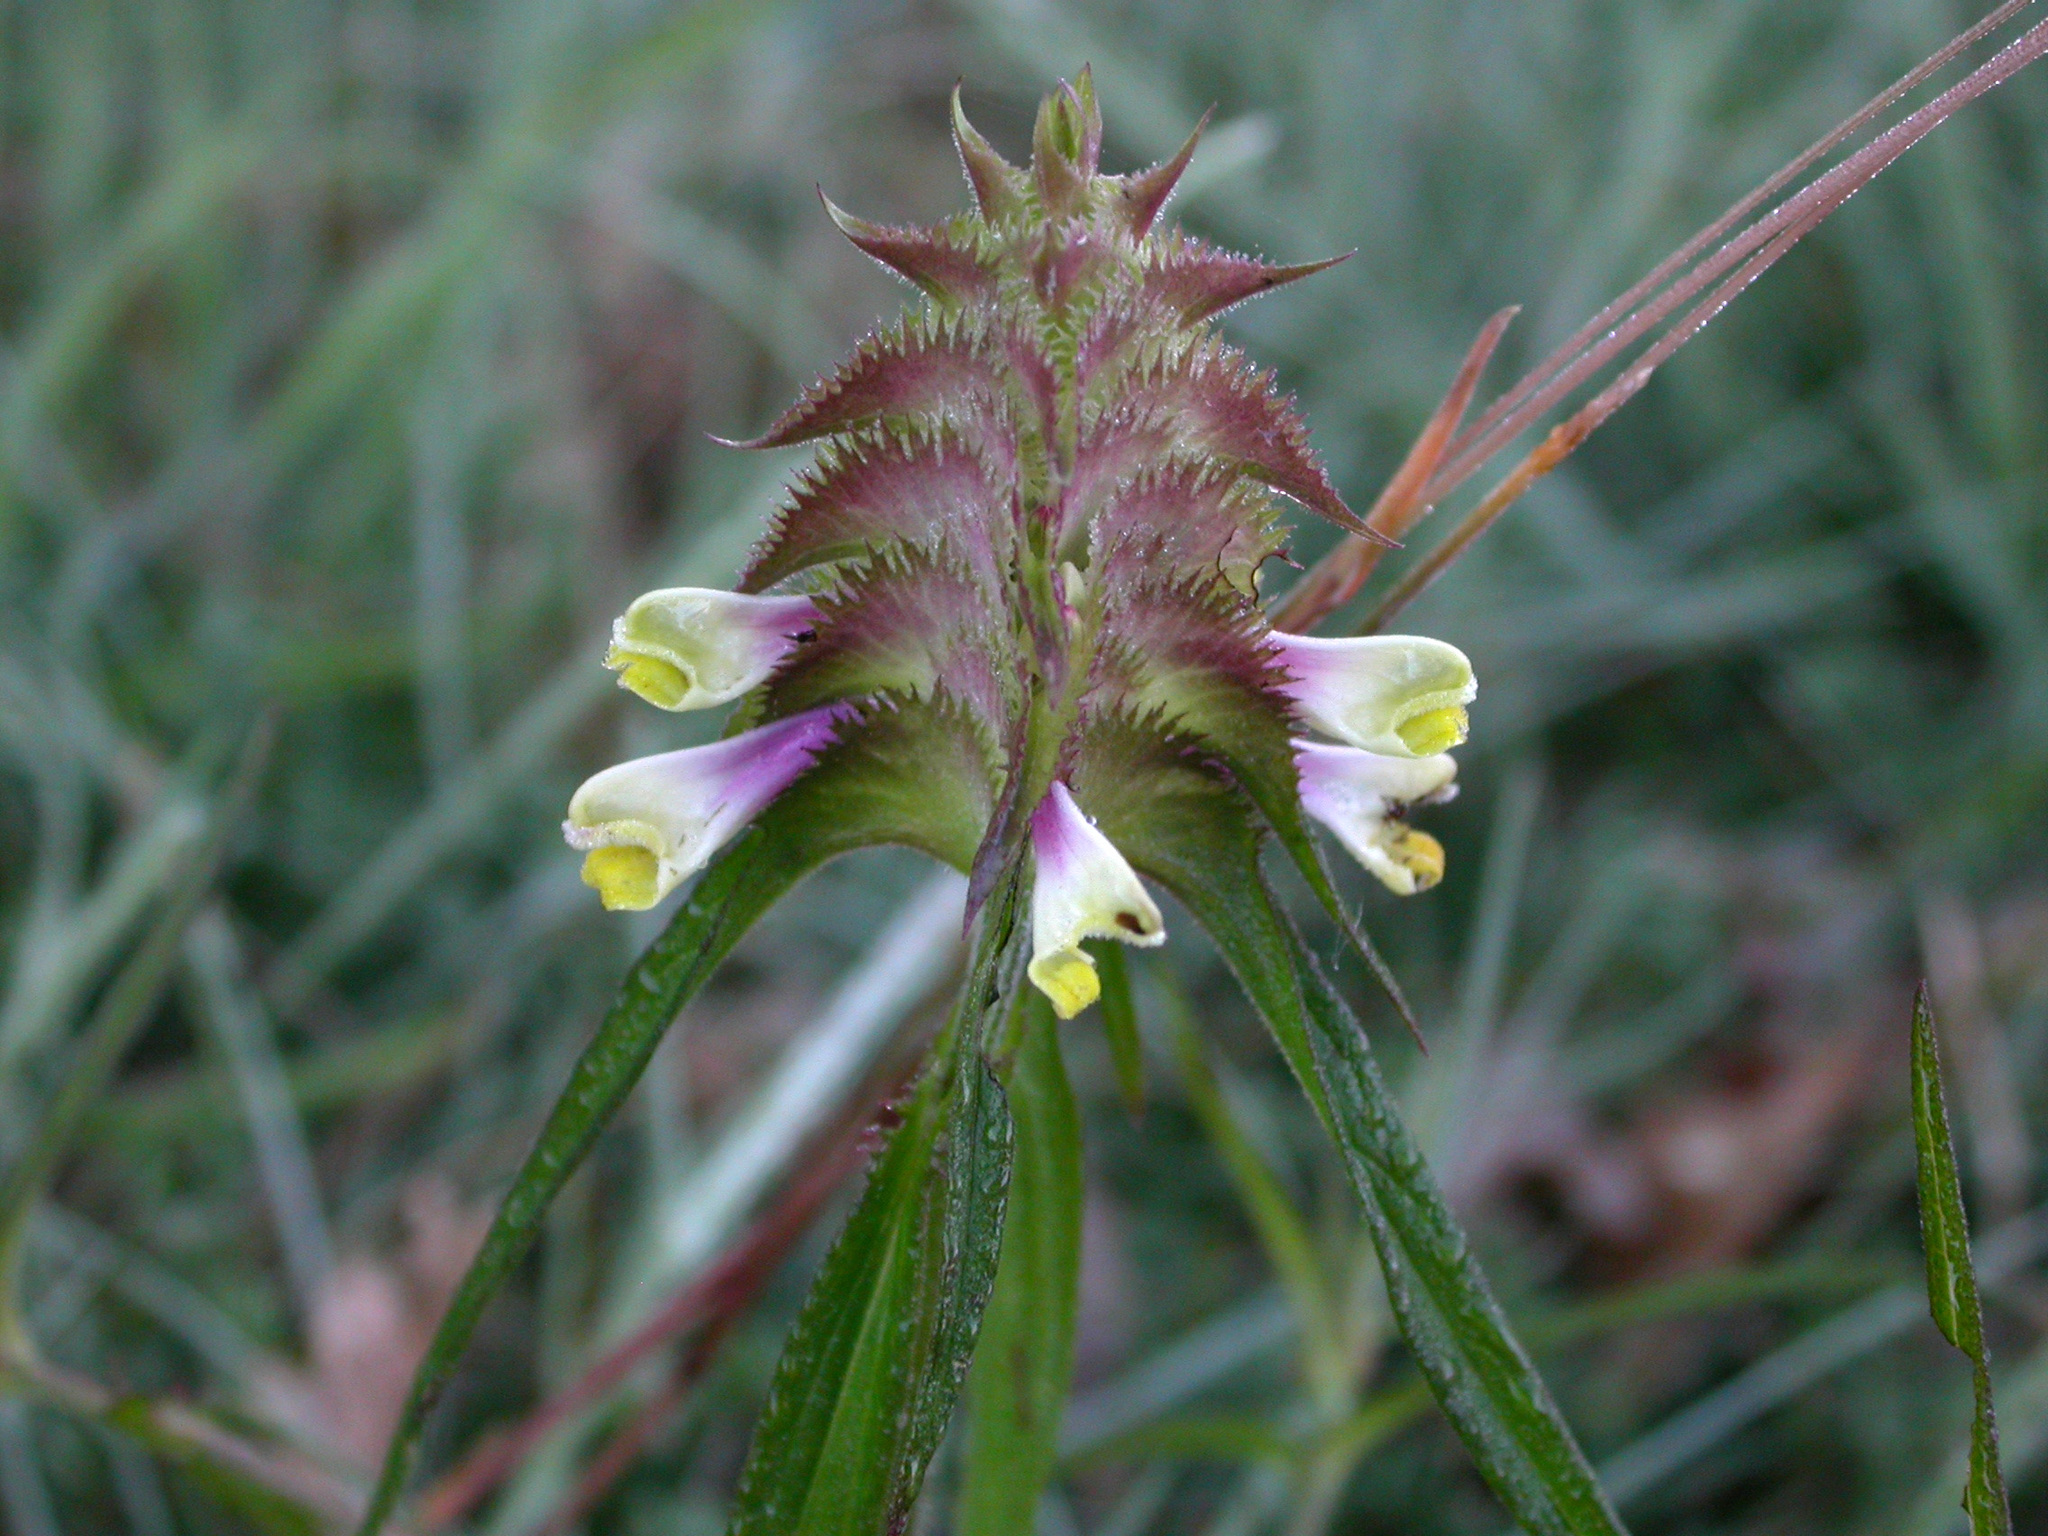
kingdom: Plantae
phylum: Tracheophyta
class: Magnoliopsida
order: Lamiales
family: Orobanchaceae
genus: Melampyrum
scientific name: Melampyrum cristatum
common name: Crested cow-wheat
